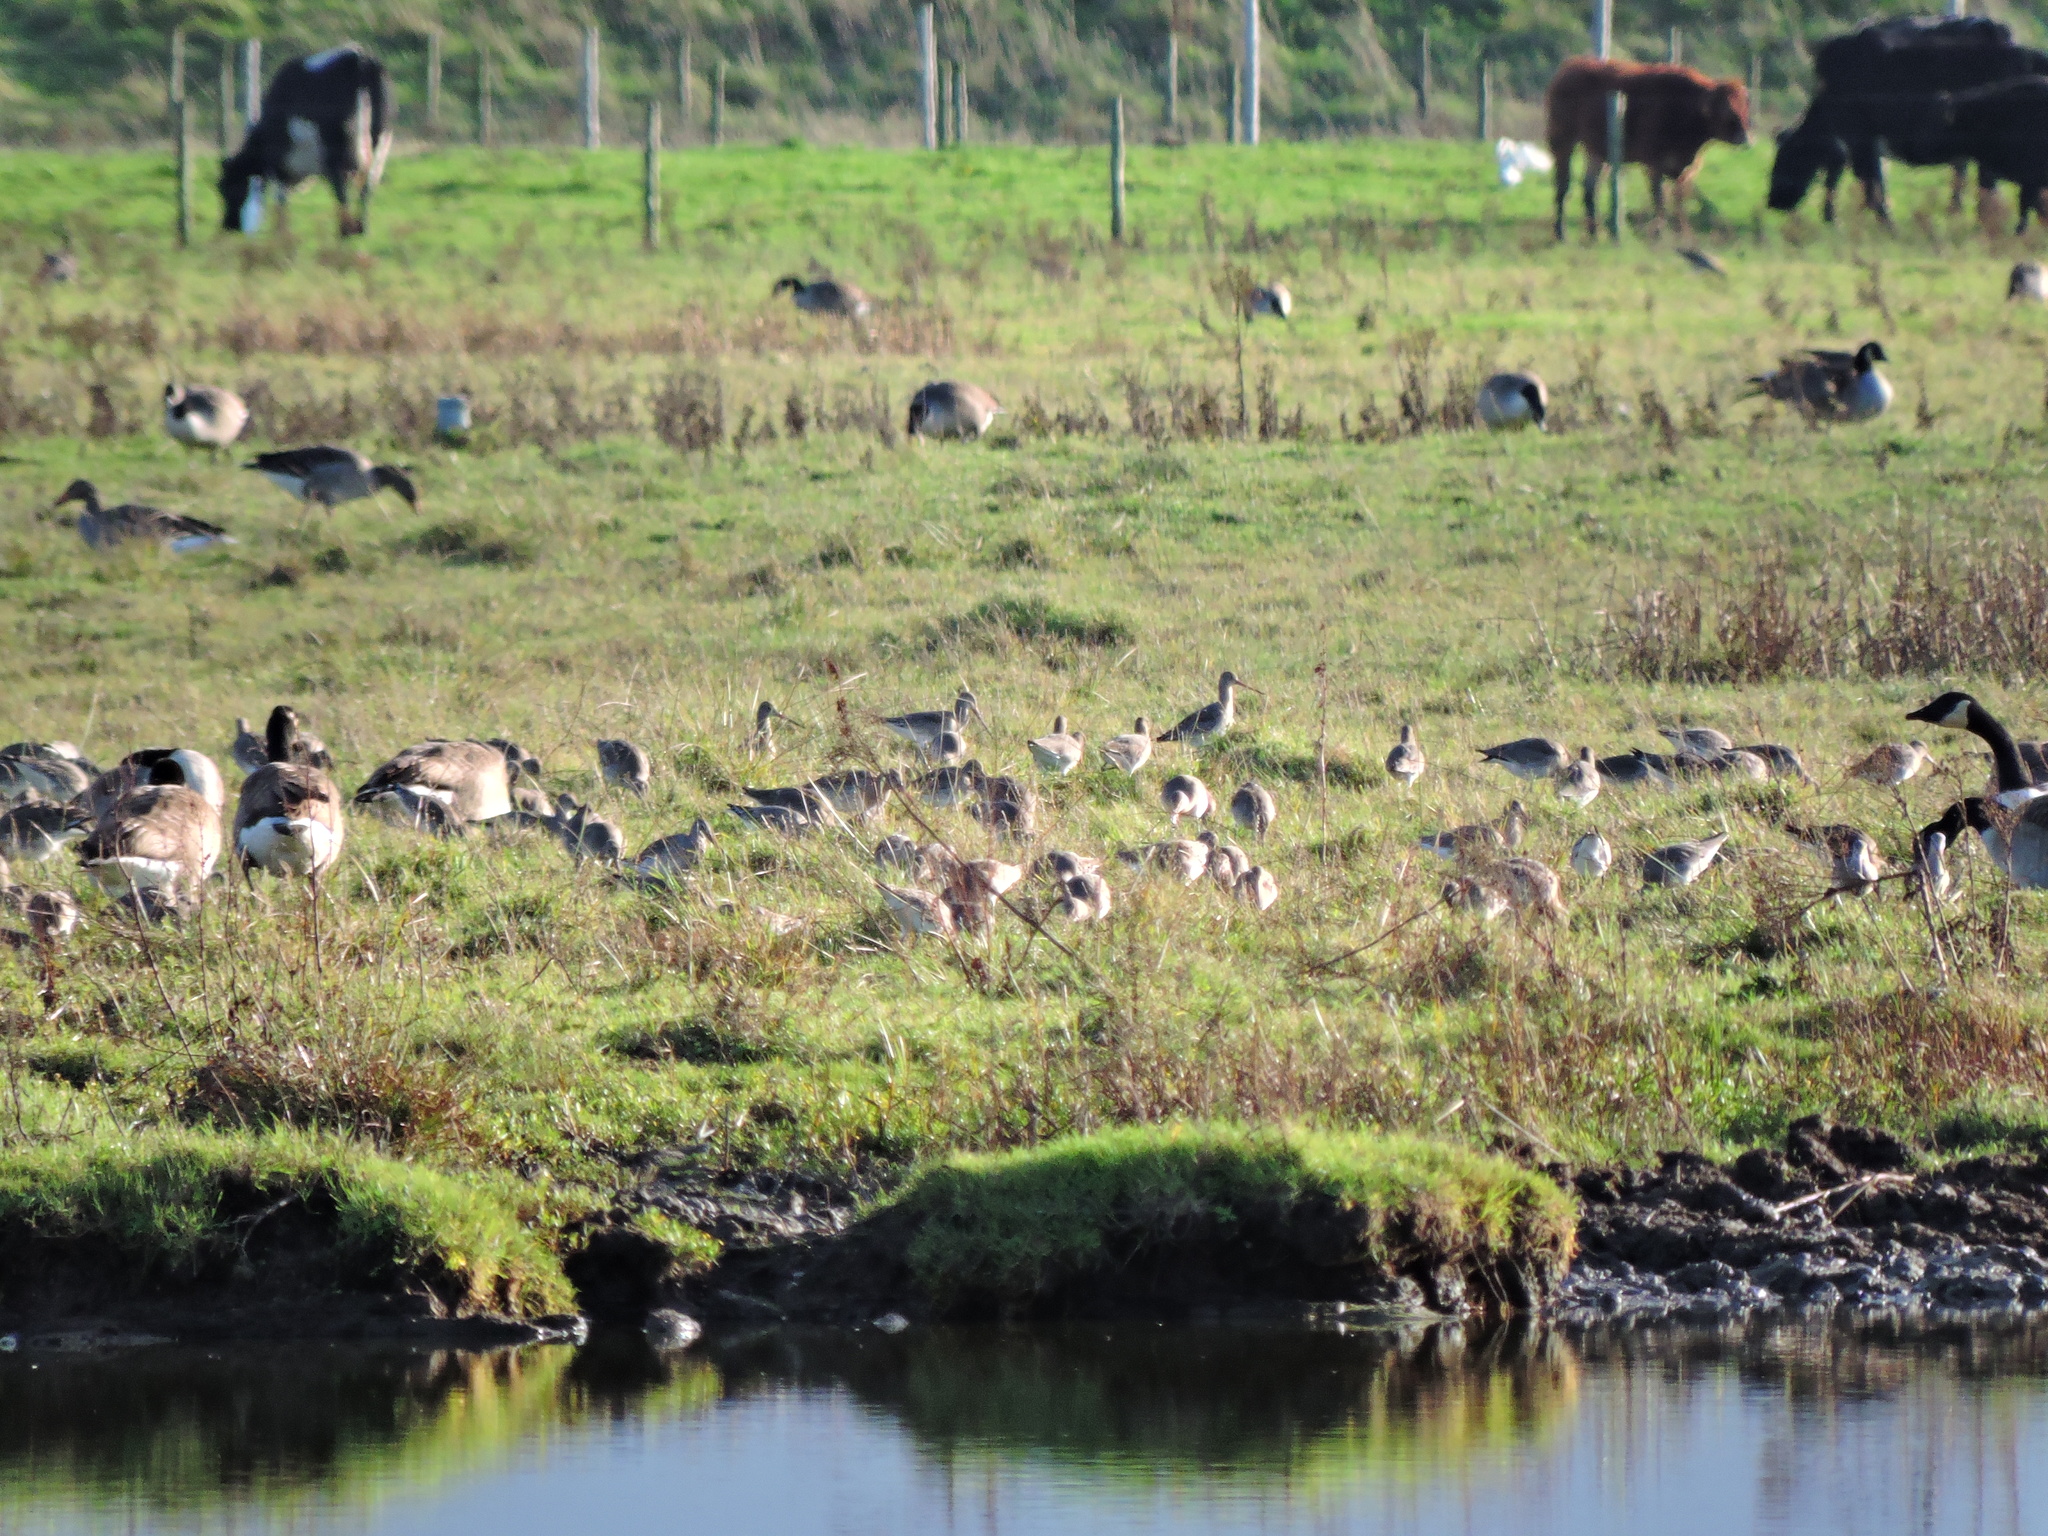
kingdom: Animalia
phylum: Chordata
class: Aves
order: Anseriformes
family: Anatidae
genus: Branta
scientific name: Branta canadensis
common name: Canada goose
